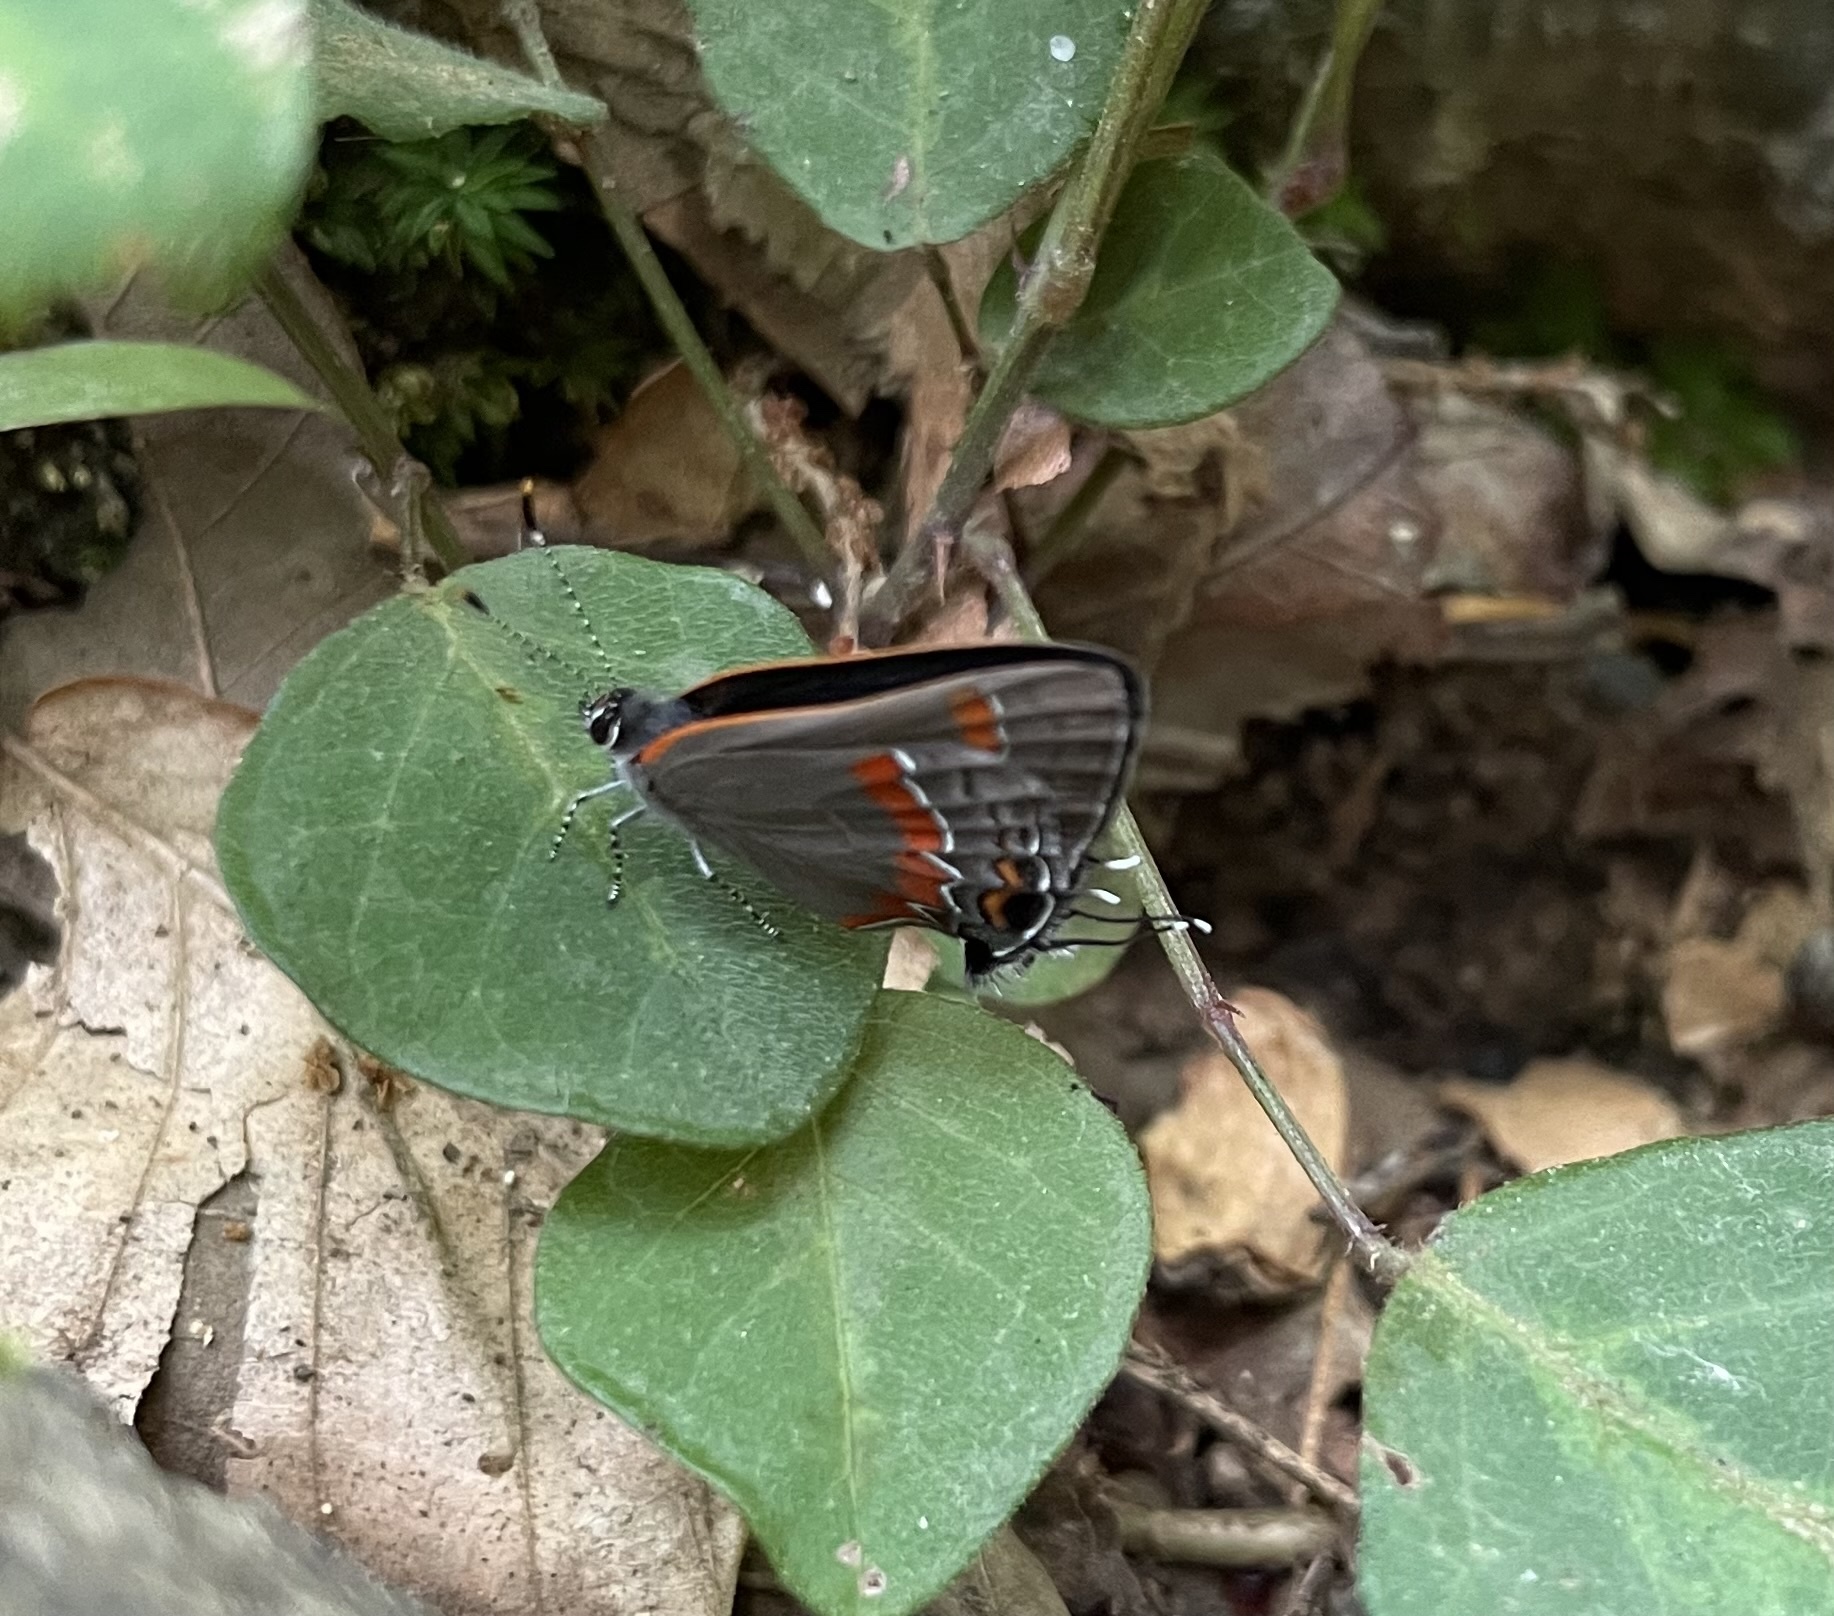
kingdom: Animalia
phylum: Arthropoda
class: Insecta
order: Lepidoptera
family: Lycaenidae
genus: Calycopis
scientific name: Calycopis cecrops
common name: Red-banded hairstreak
